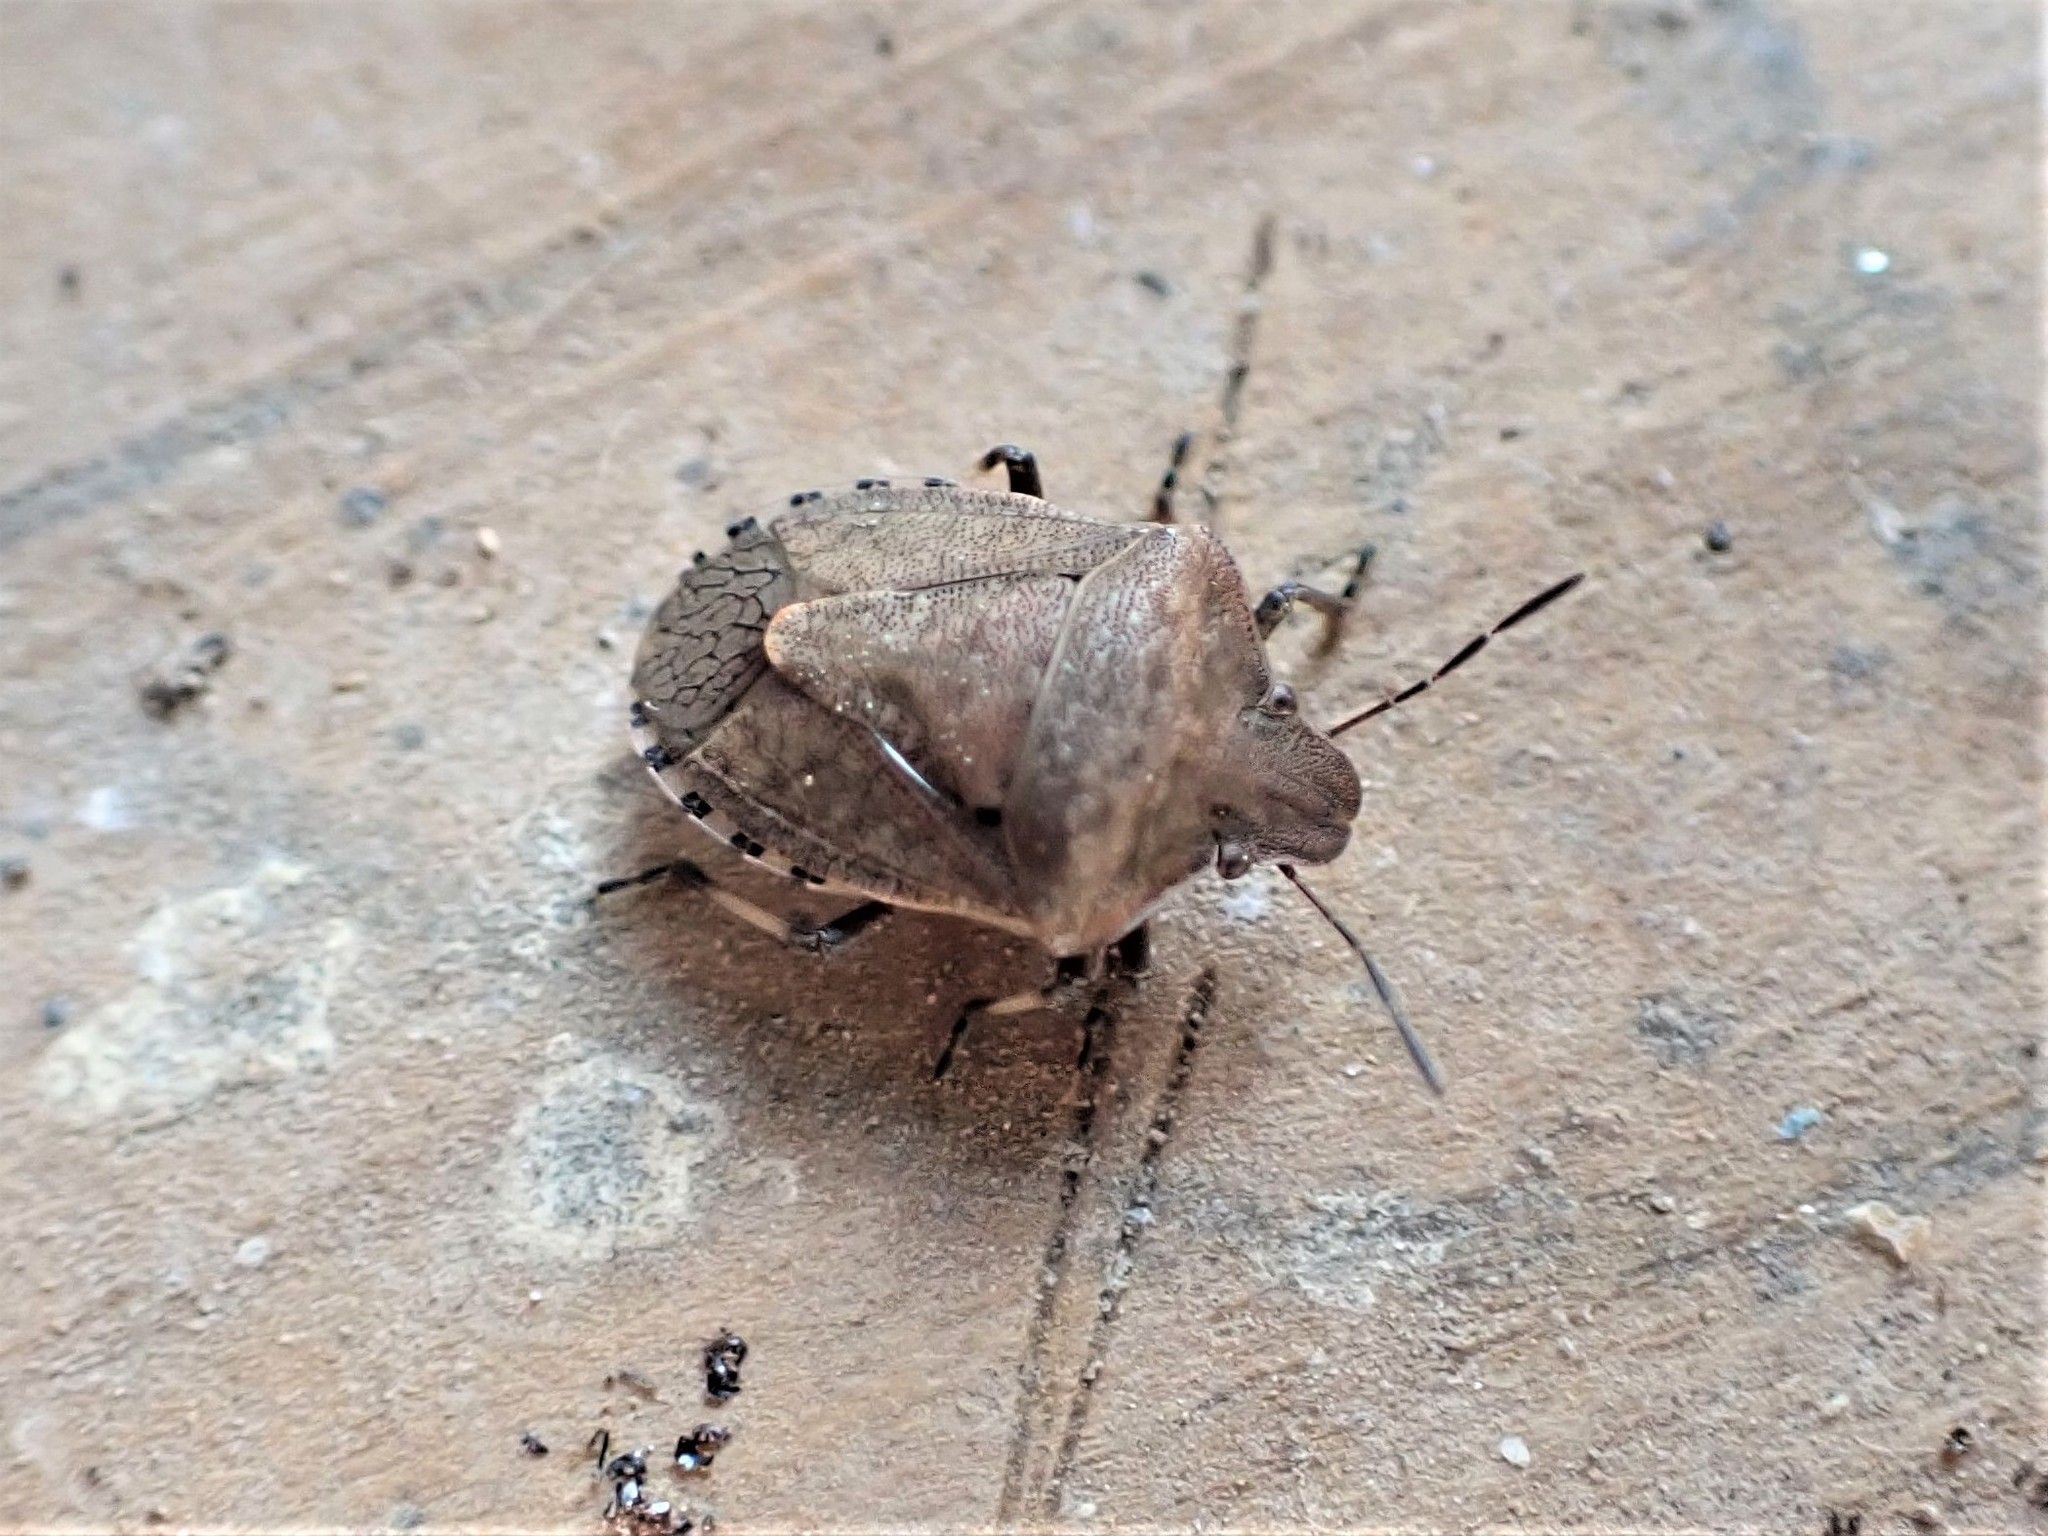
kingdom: Animalia
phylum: Arthropoda
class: Insecta
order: Hemiptera
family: Pentatomidae
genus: Dictyotus
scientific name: Dictyotus caenosus
